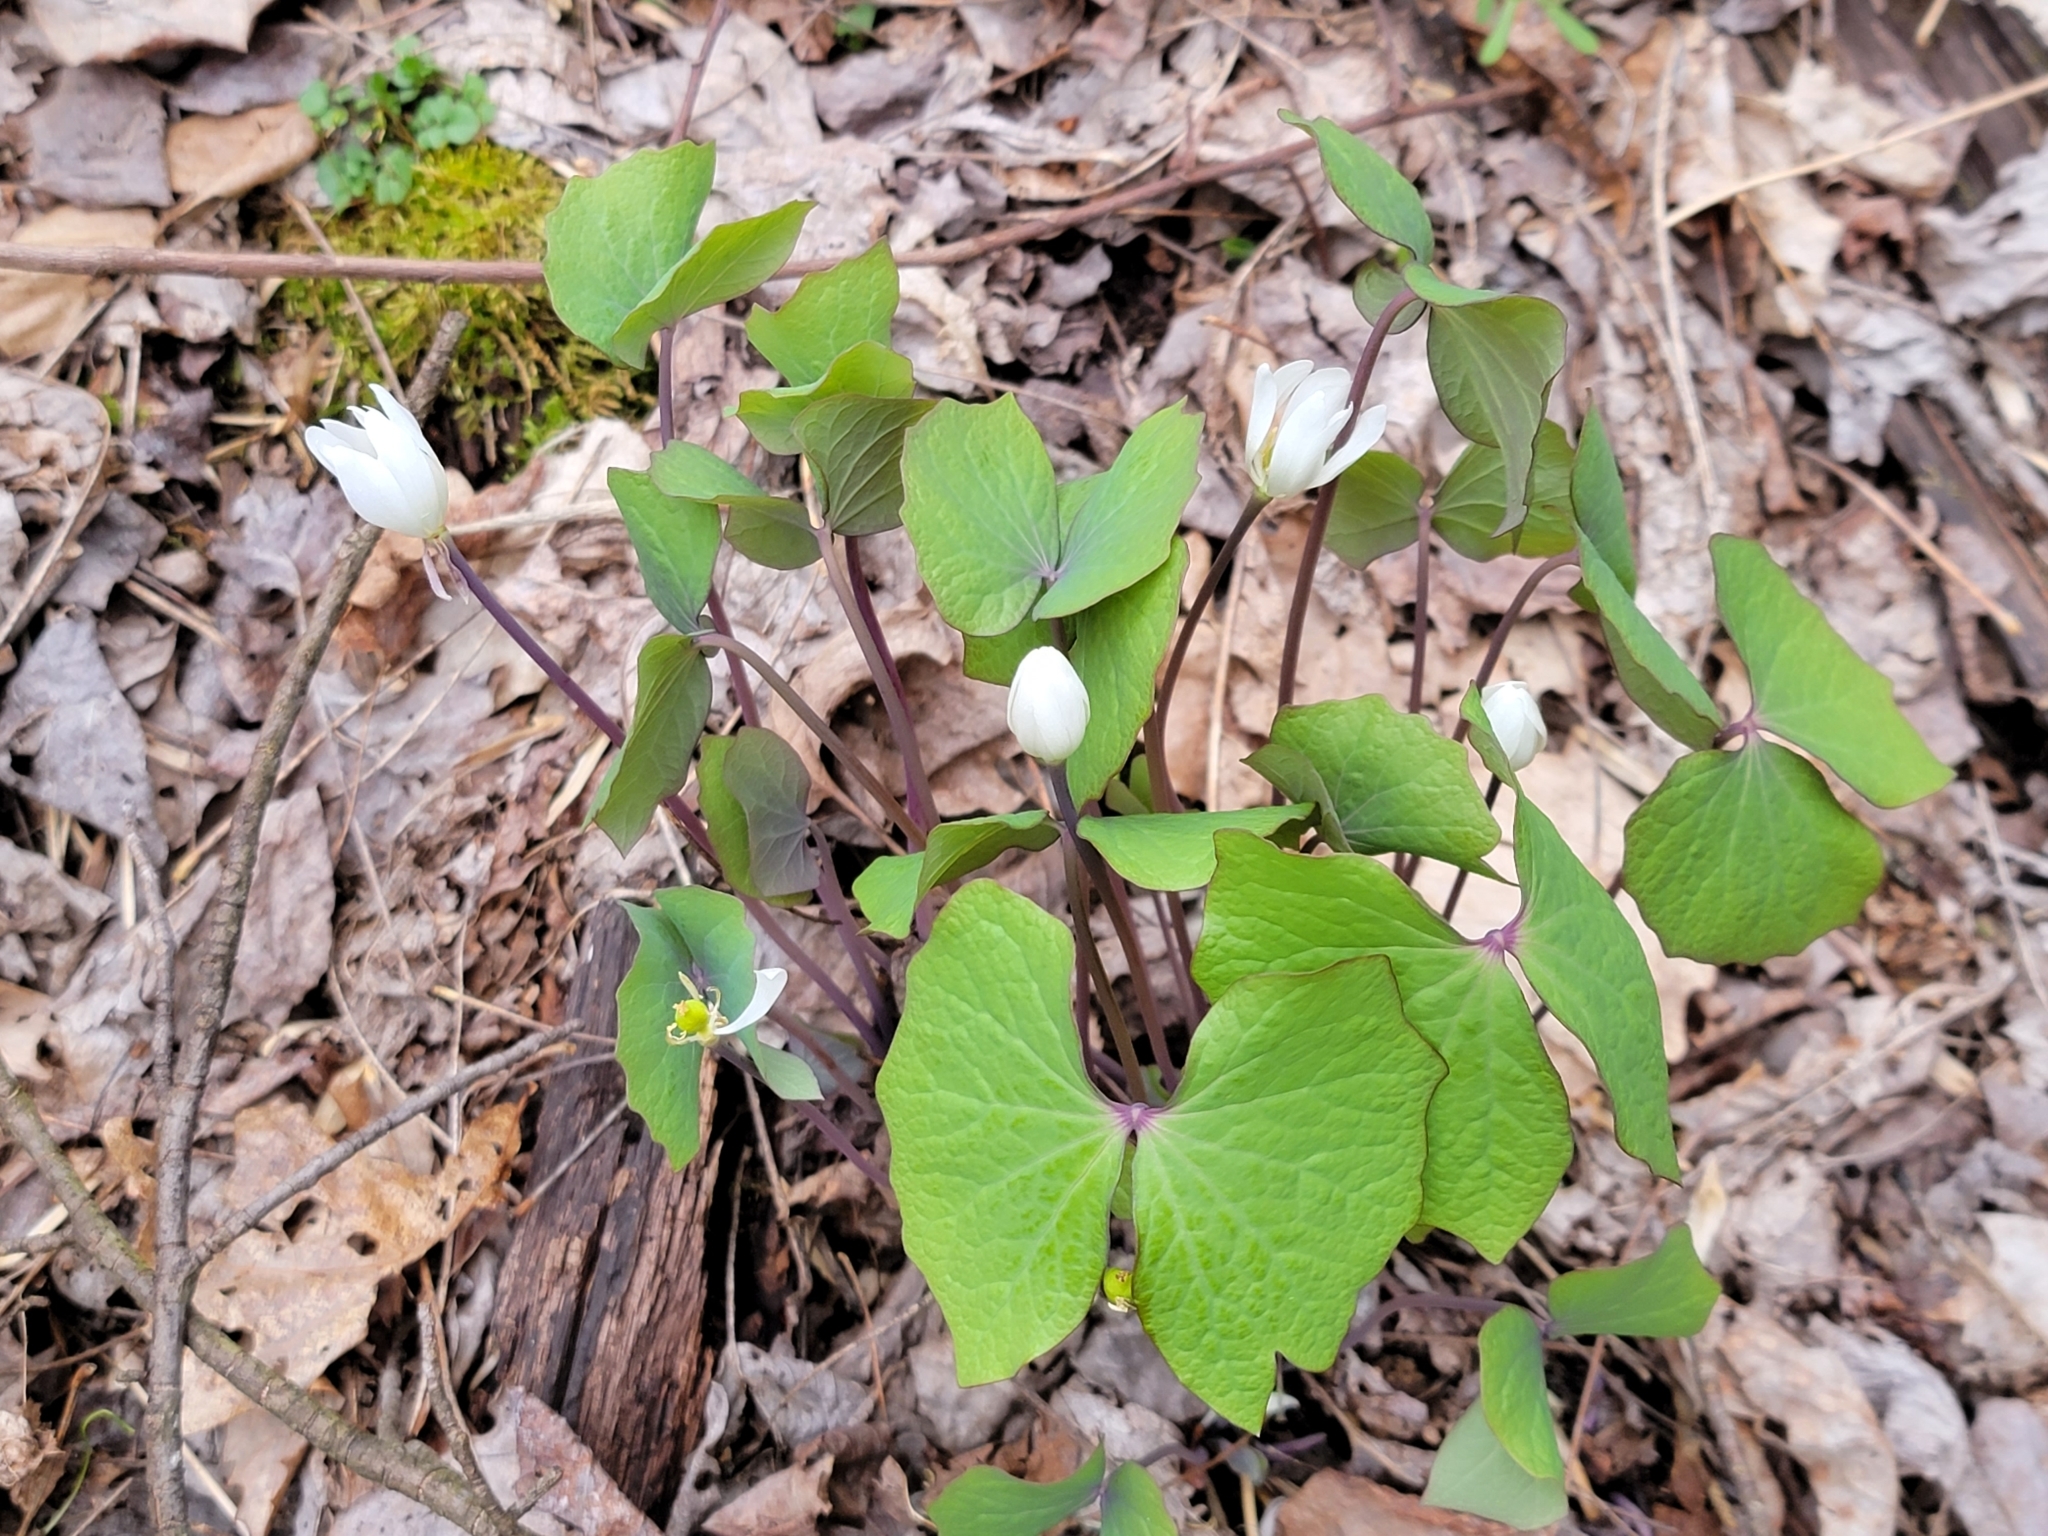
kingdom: Plantae
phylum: Tracheophyta
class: Magnoliopsida
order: Ranunculales
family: Berberidaceae
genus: Jeffersonia
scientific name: Jeffersonia diphylla
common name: Rheumatism-root
